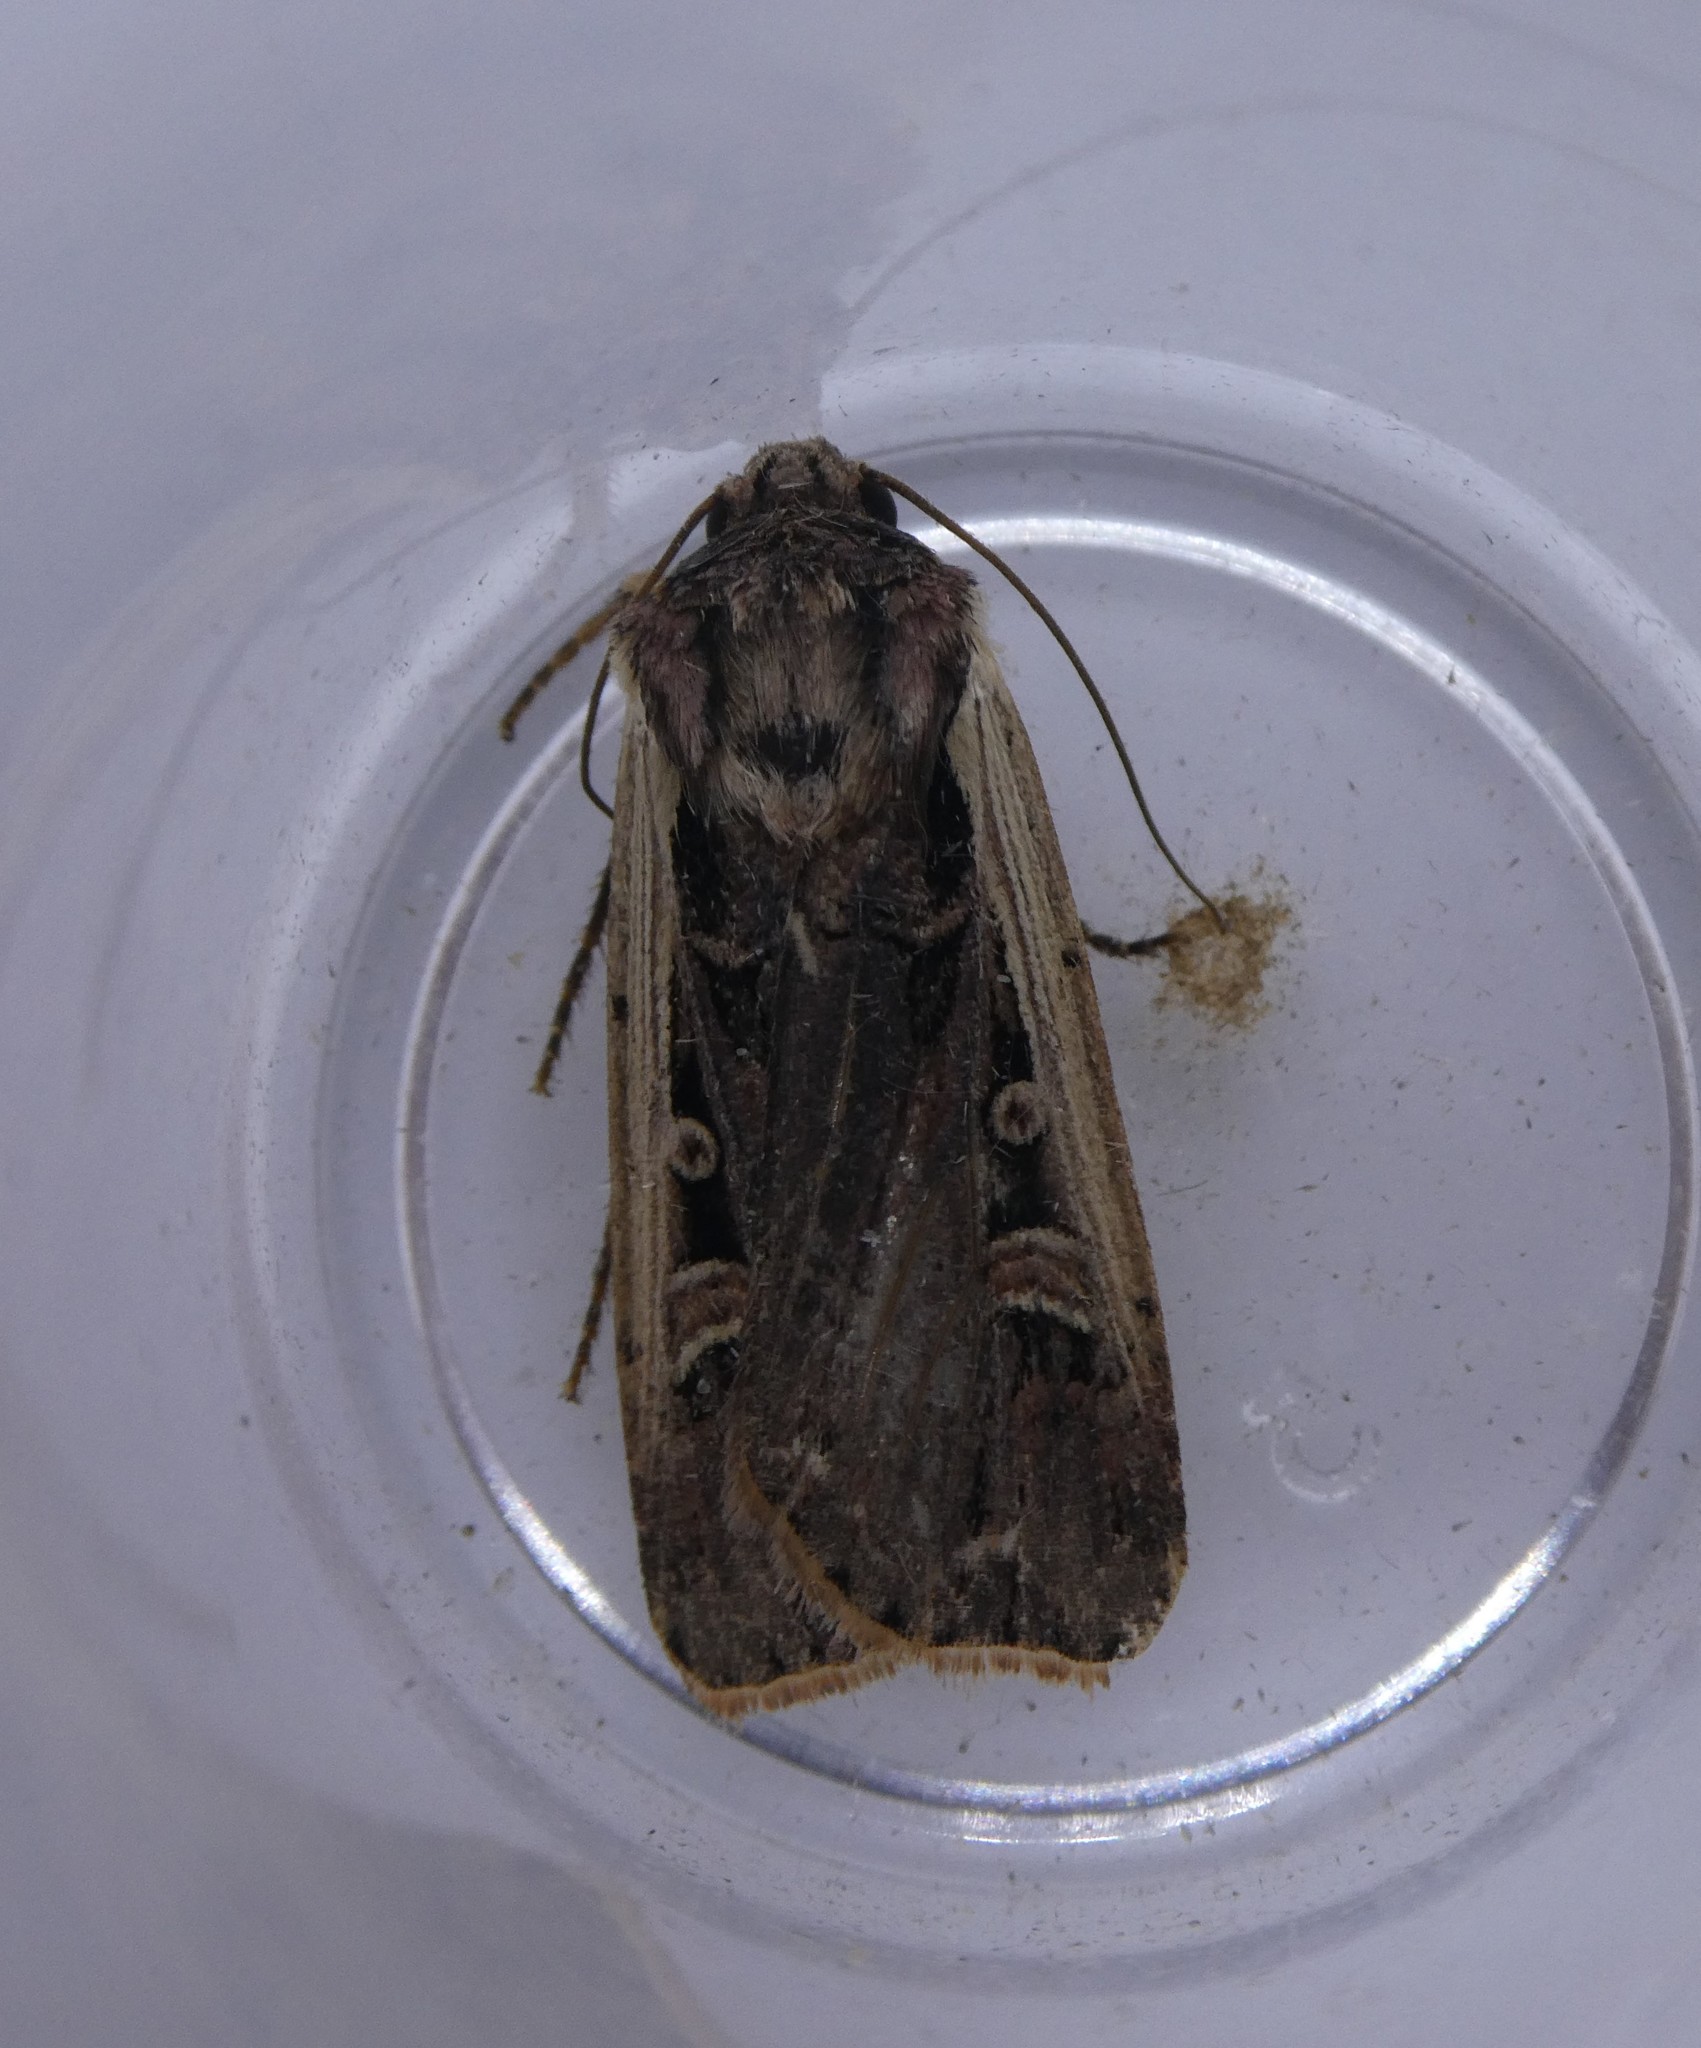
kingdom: Animalia
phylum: Arthropoda
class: Insecta
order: Lepidoptera
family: Noctuidae
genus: Striacosta
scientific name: Striacosta albicosta
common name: Western bean cutworm moth
